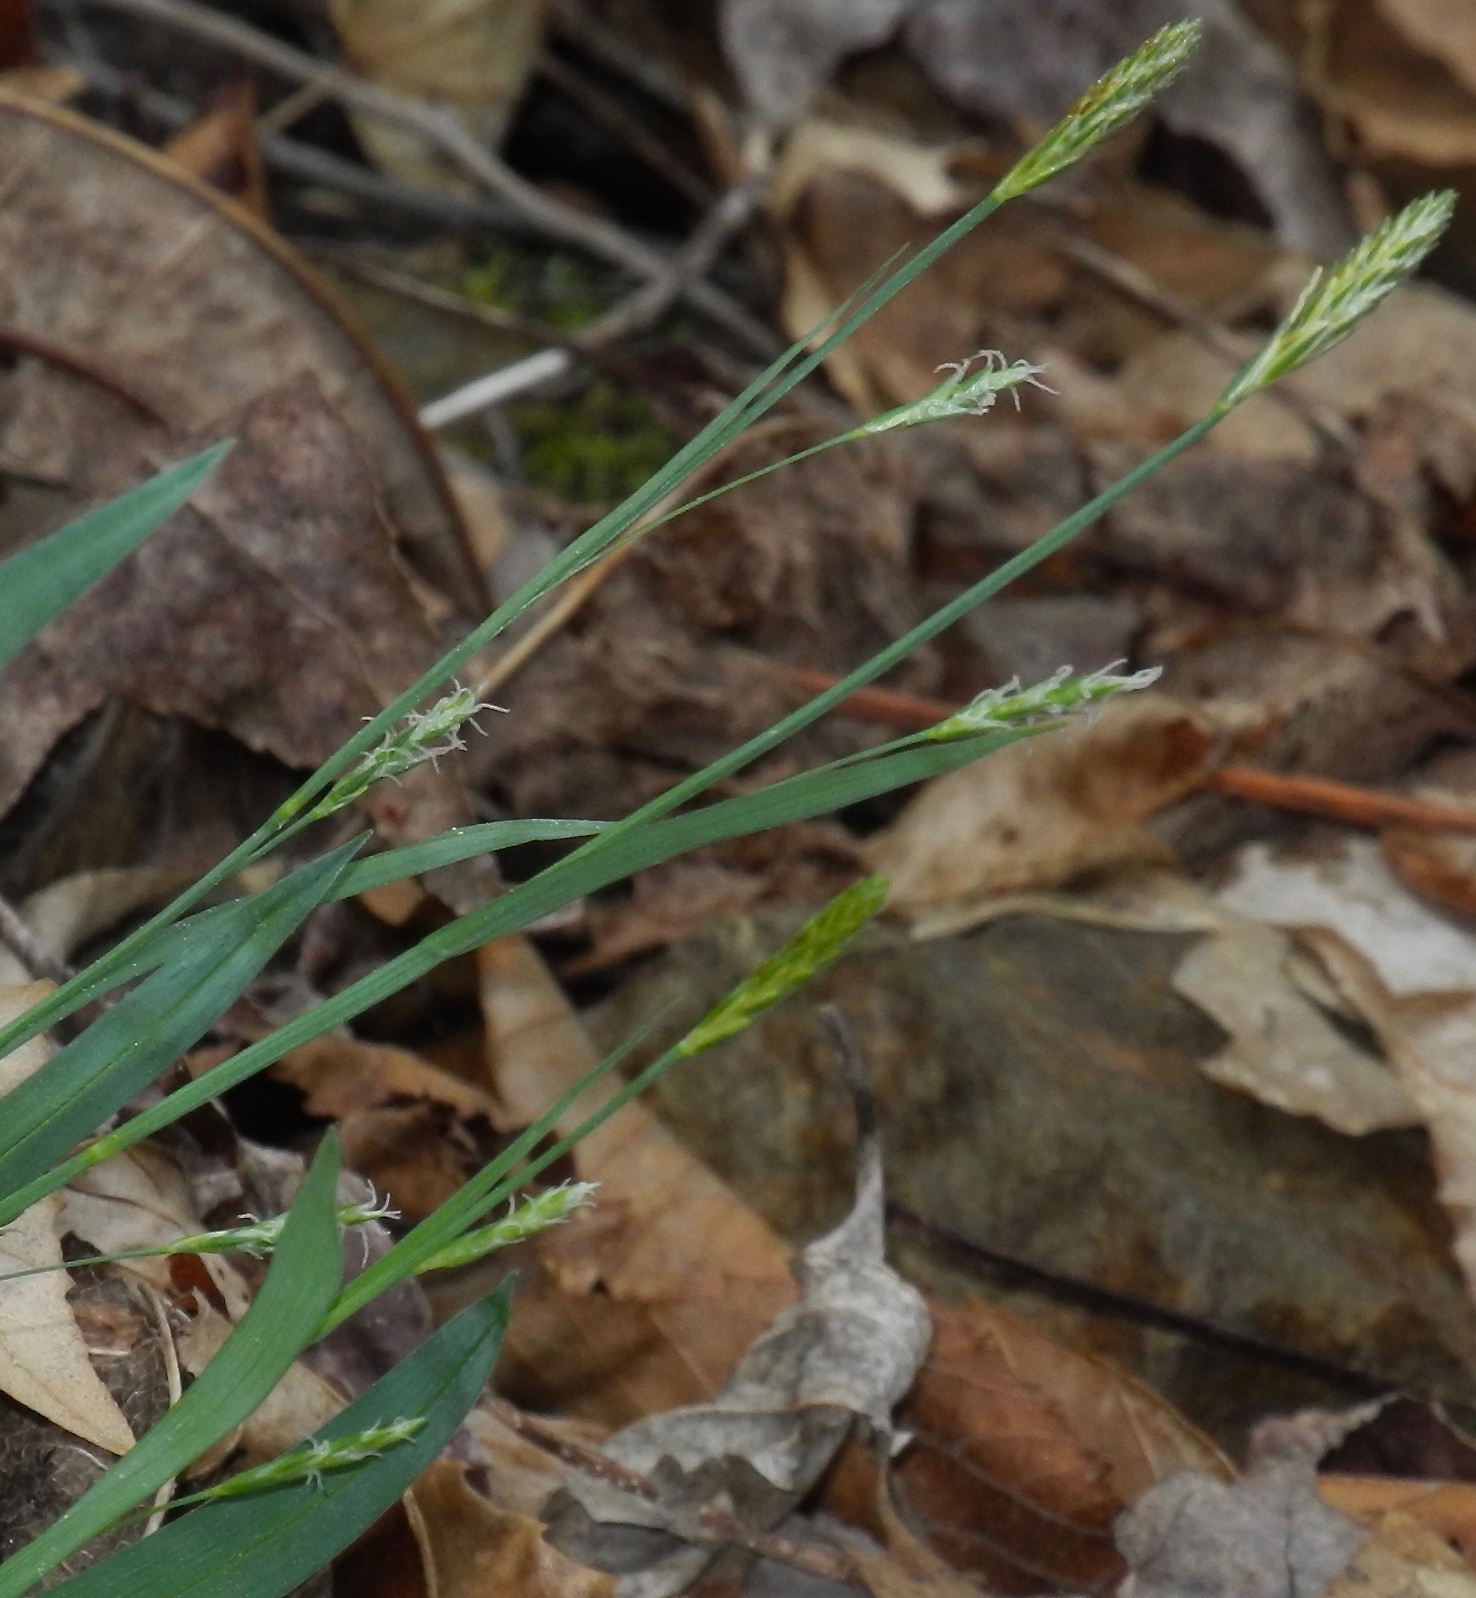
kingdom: Plantae
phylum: Tracheophyta
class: Liliopsida
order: Poales
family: Cyperaceae
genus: Carex
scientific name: Carex laxiculmis
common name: Spreading sedge
